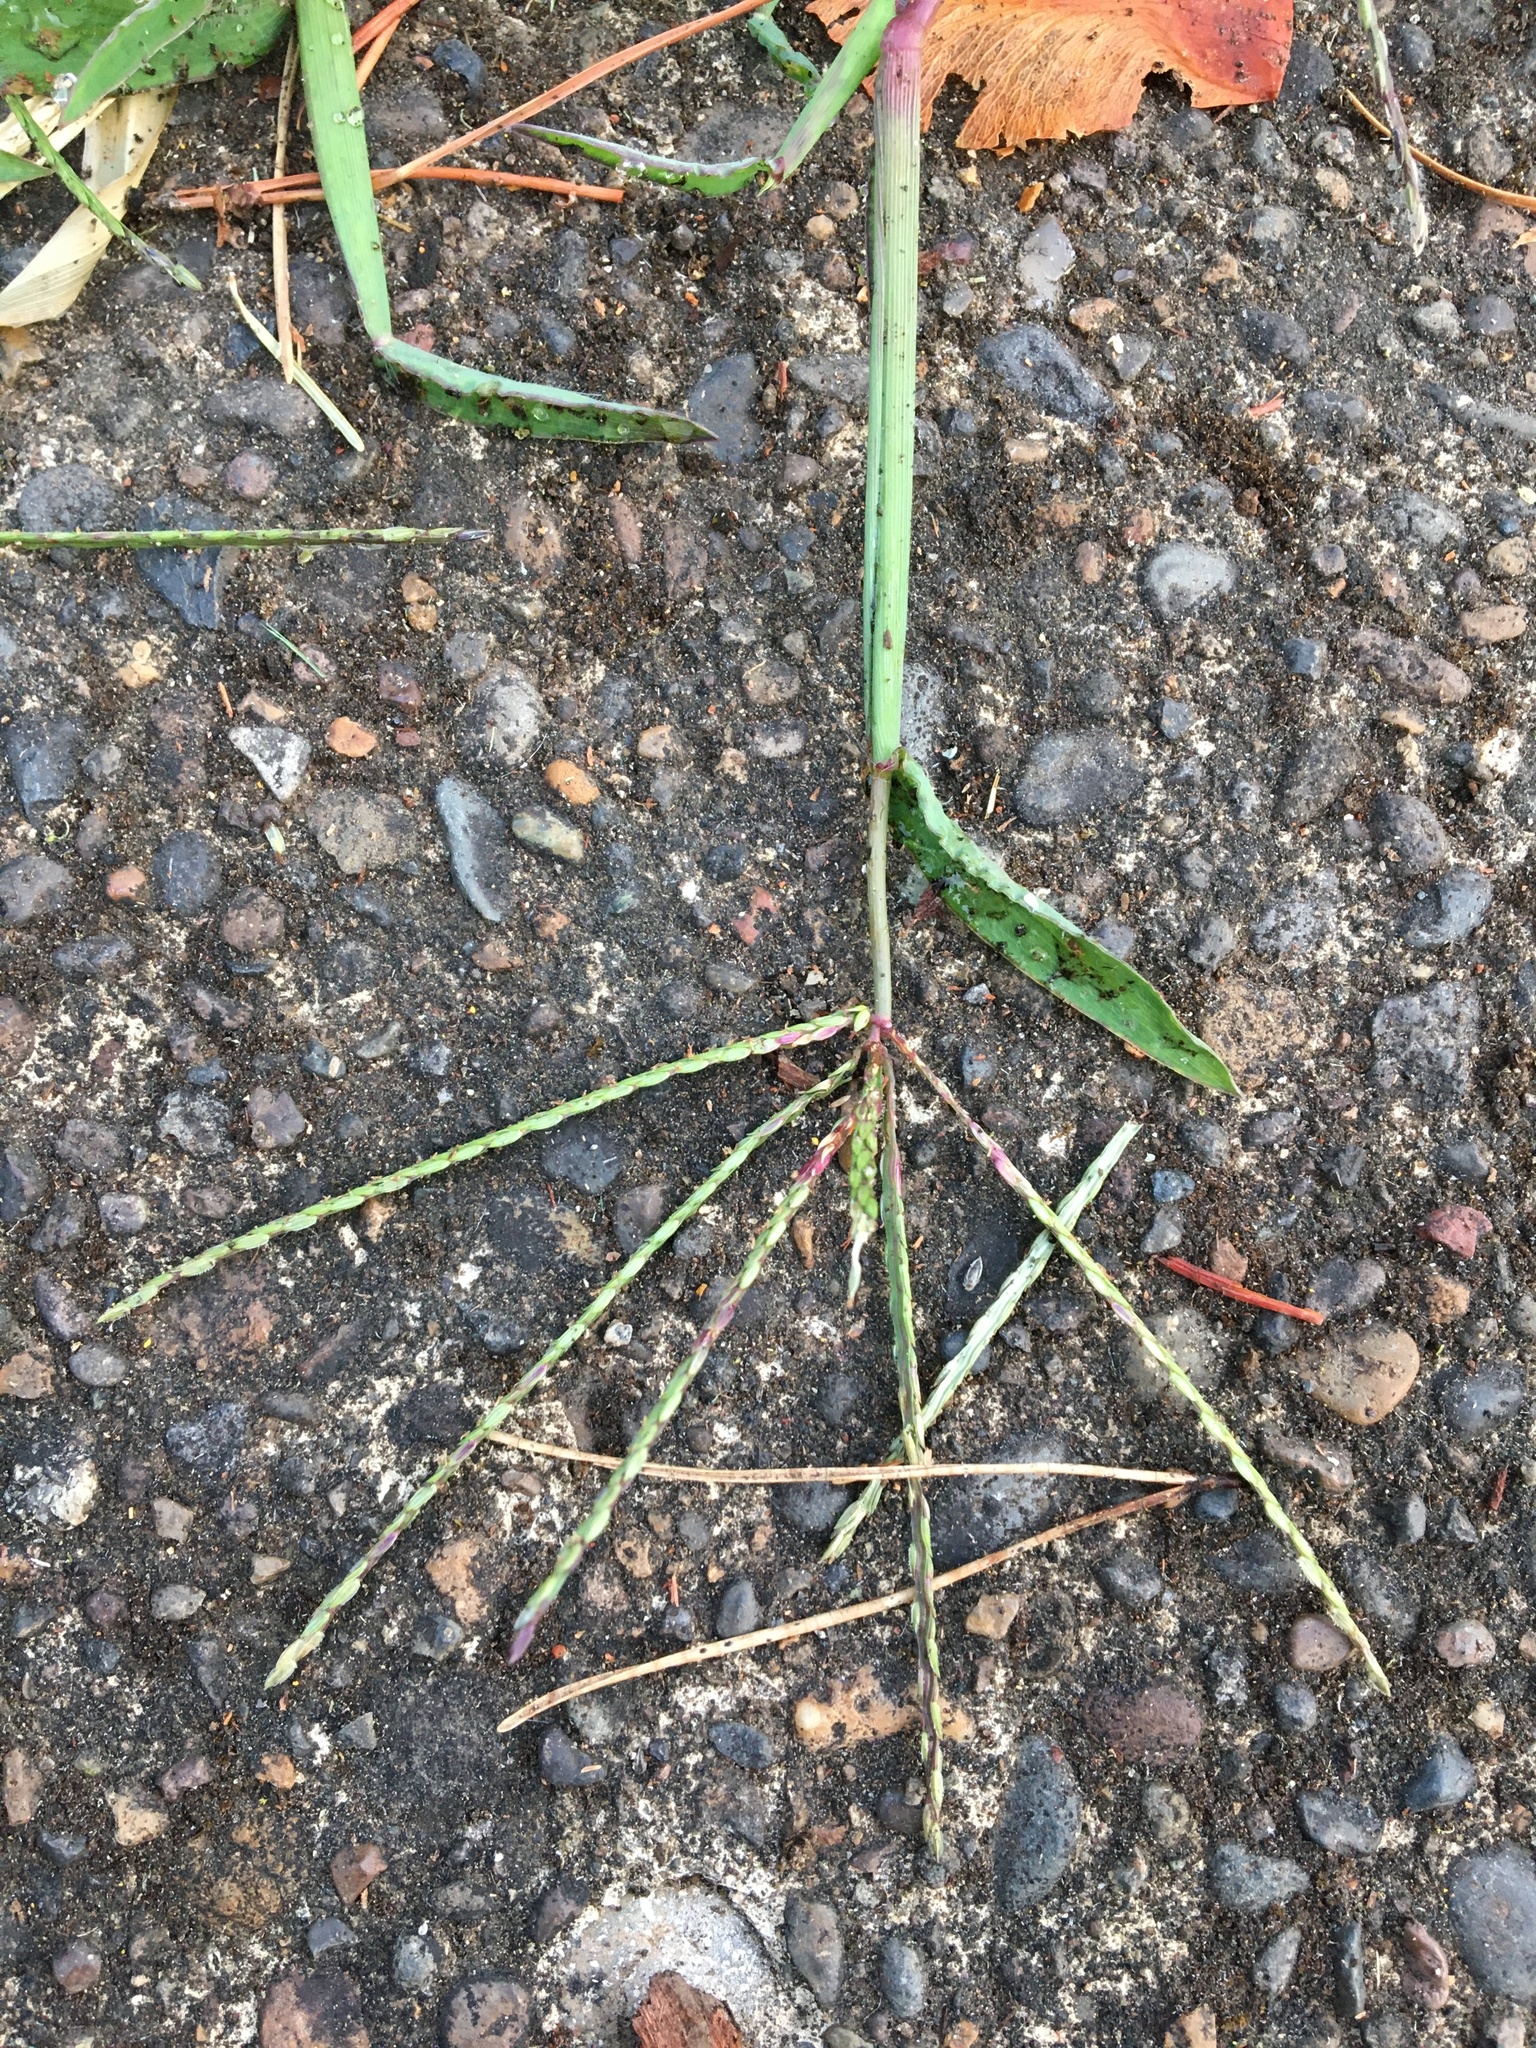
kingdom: Plantae
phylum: Tracheophyta
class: Liliopsida
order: Poales
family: Poaceae
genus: Digitaria
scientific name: Digitaria sanguinalis
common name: Hairy crabgrass
